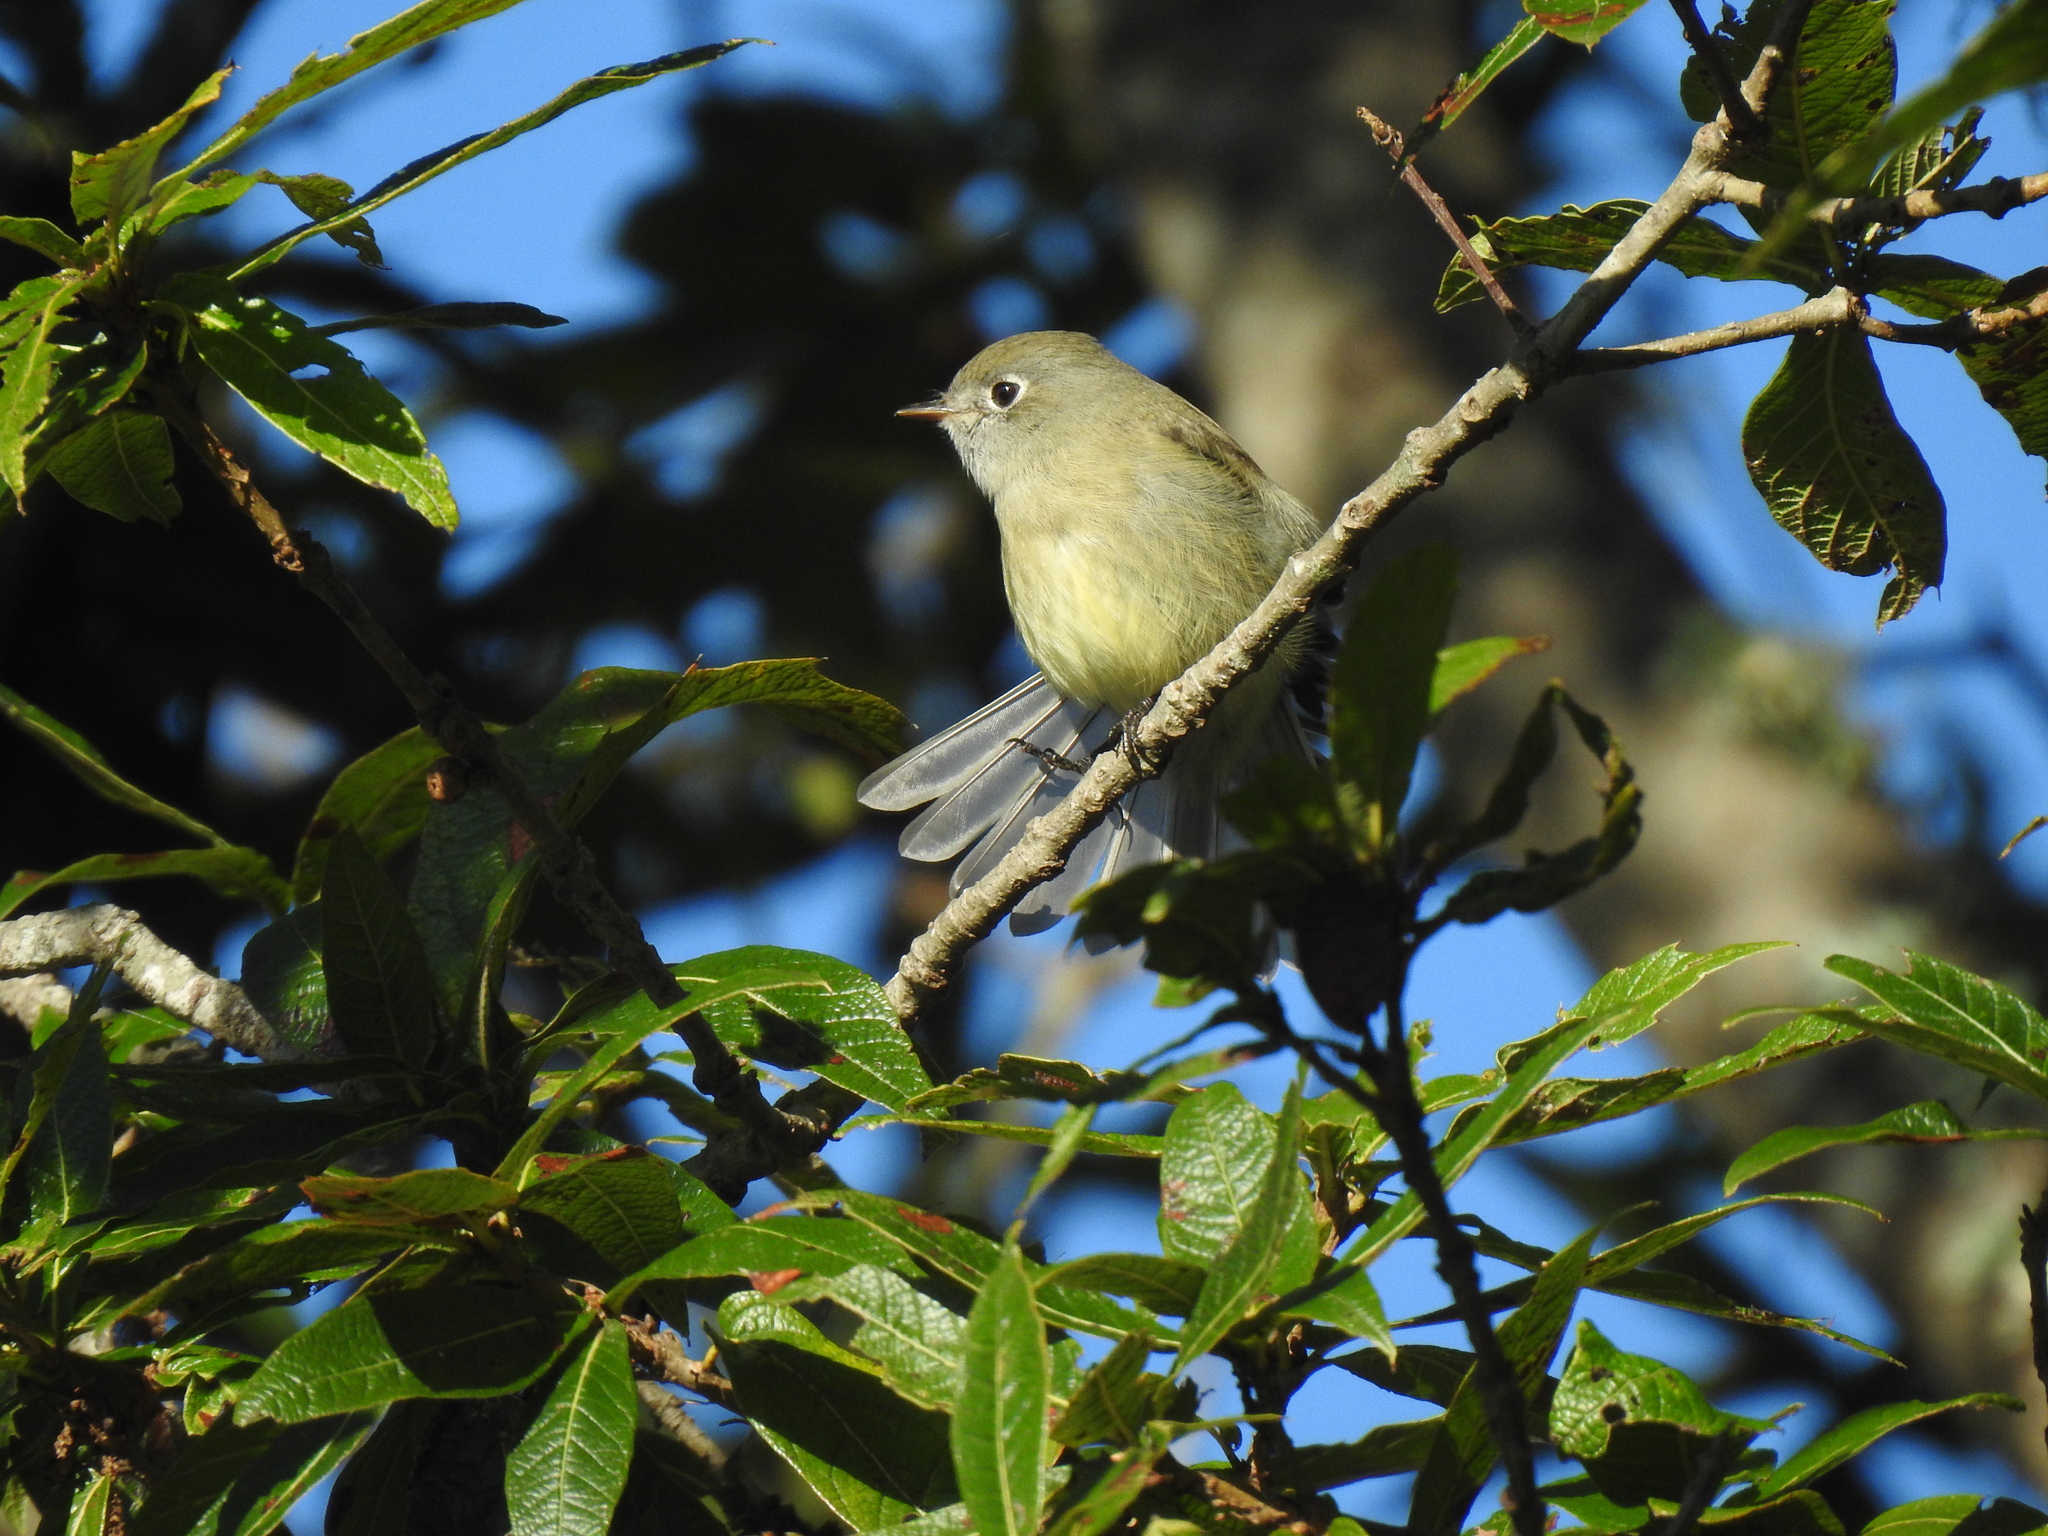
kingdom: Animalia
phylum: Chordata
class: Aves
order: Passeriformes
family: Tyrannidae
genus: Empidonax
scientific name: Empidonax hammondii
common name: Hammond's flycatcher
